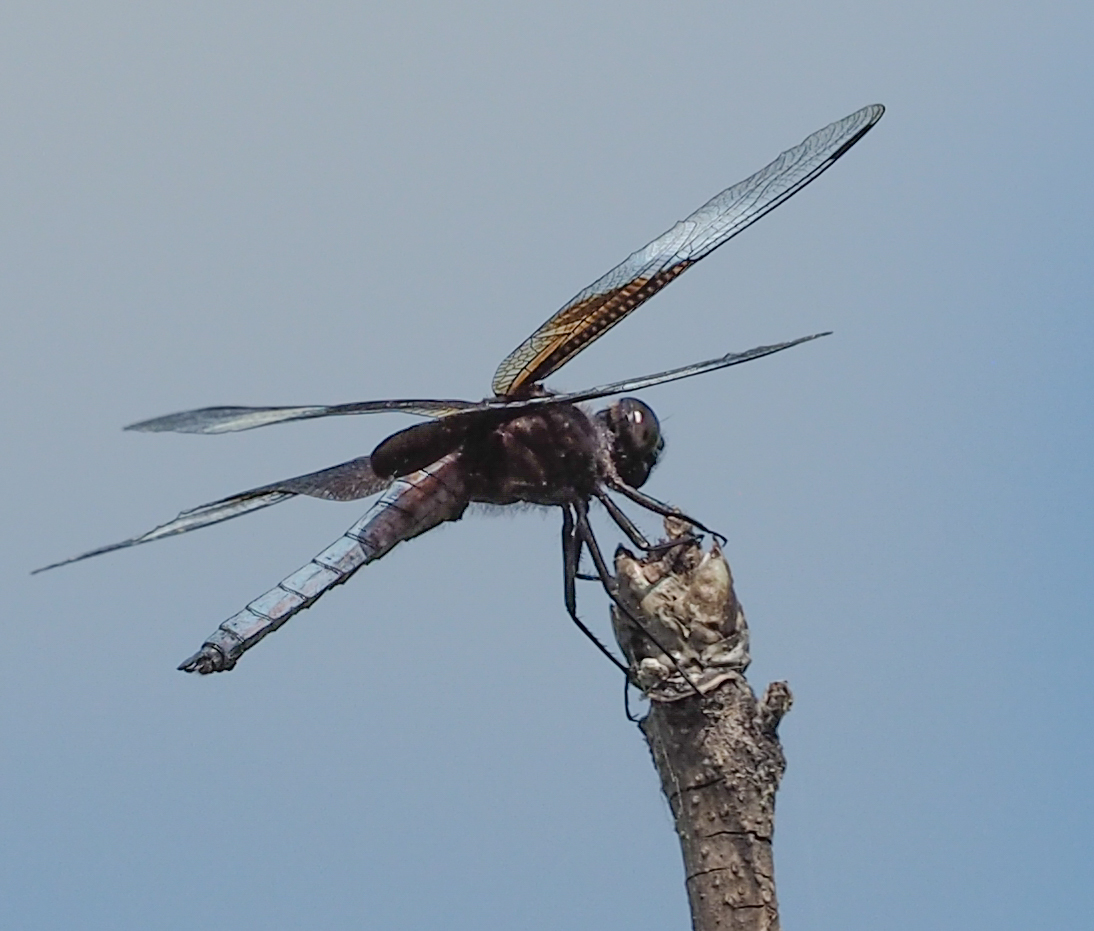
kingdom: Animalia
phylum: Arthropoda
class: Insecta
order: Odonata
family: Libellulidae
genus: Libellula
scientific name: Libellula luctuosa
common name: Widow skimmer
